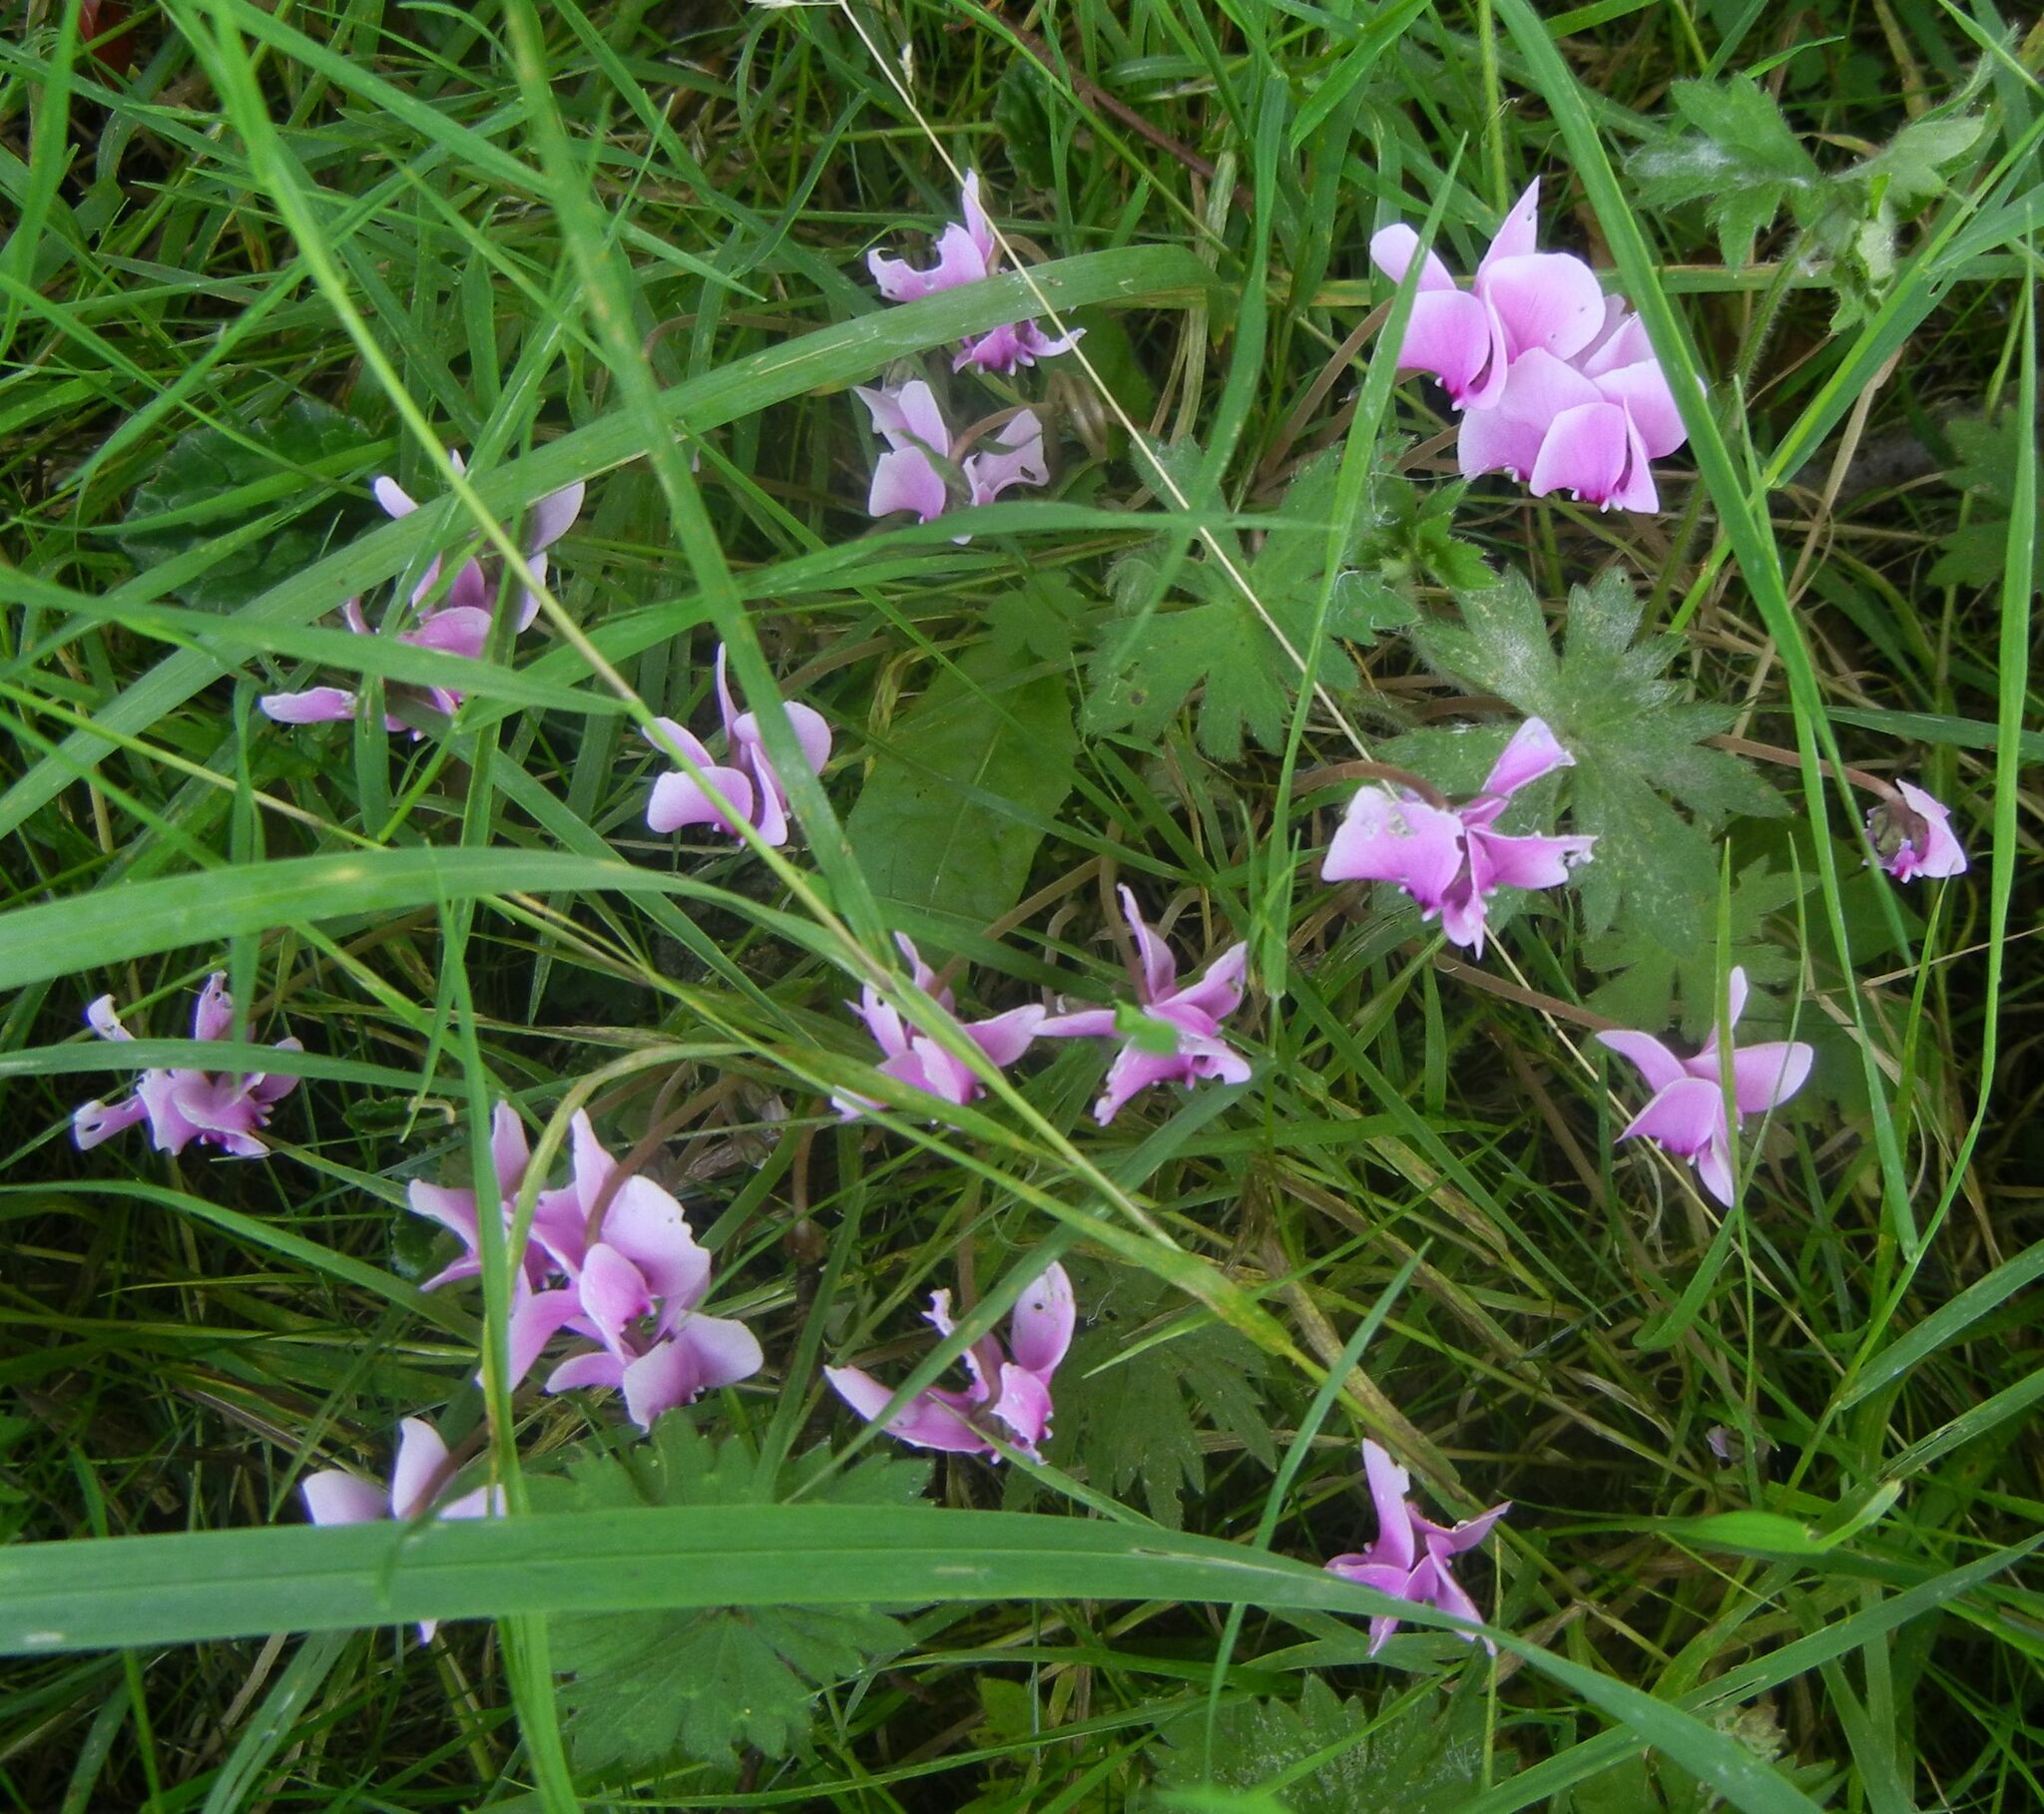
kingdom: Plantae
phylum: Tracheophyta
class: Magnoliopsida
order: Ericales
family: Primulaceae
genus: Cyclamen
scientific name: Cyclamen hederifolium
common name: Sowbread
